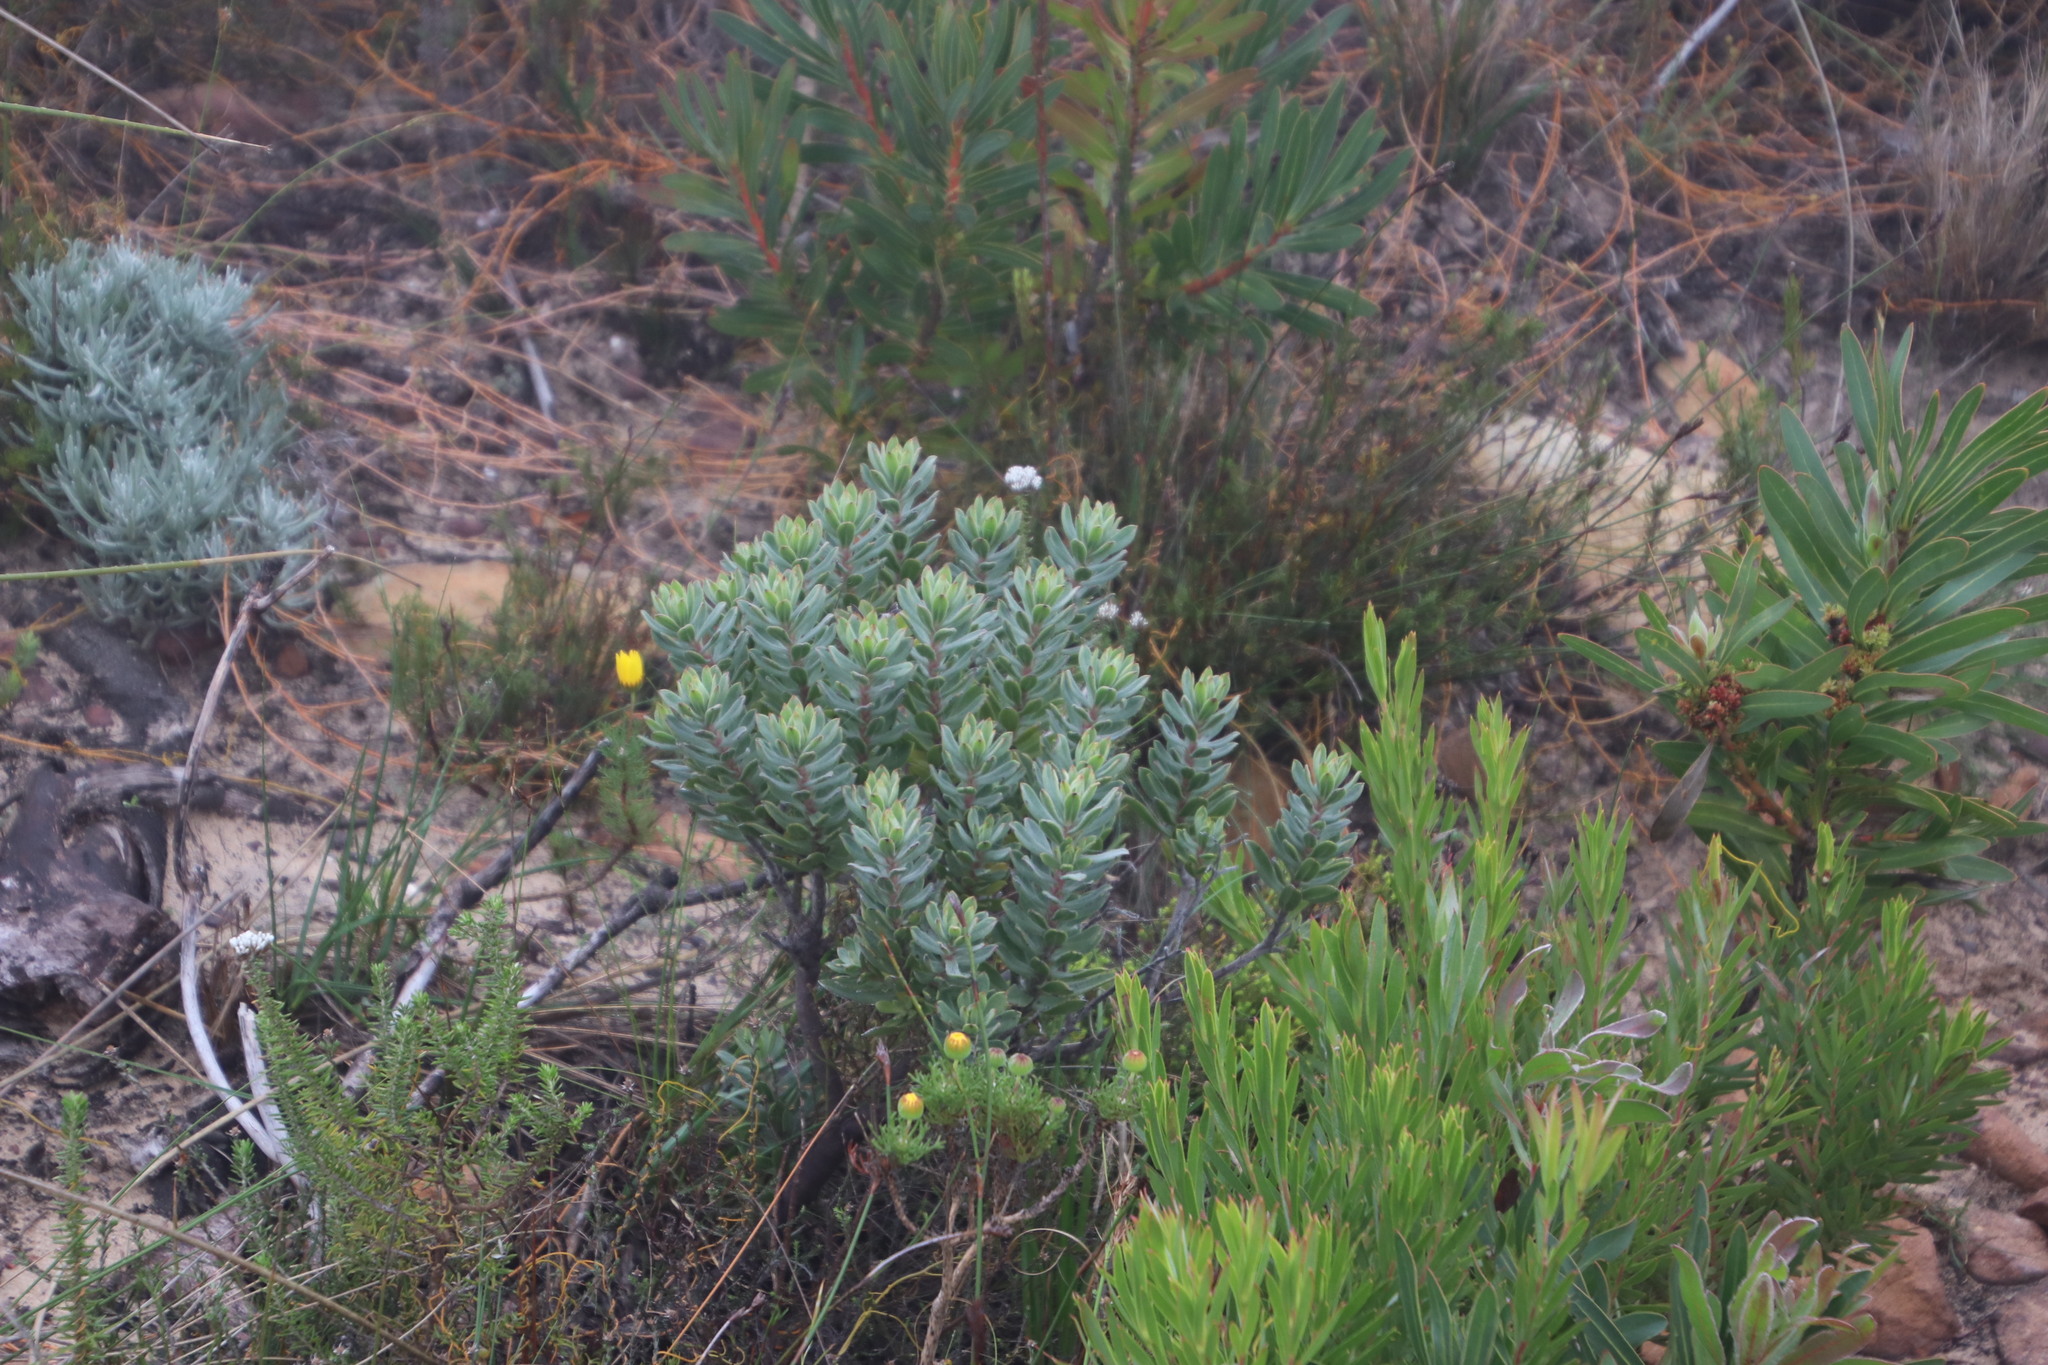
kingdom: Plantae
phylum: Tracheophyta
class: Magnoliopsida
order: Boraginales
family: Boraginaceae
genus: Lobostemon
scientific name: Lobostemon fruticosus
